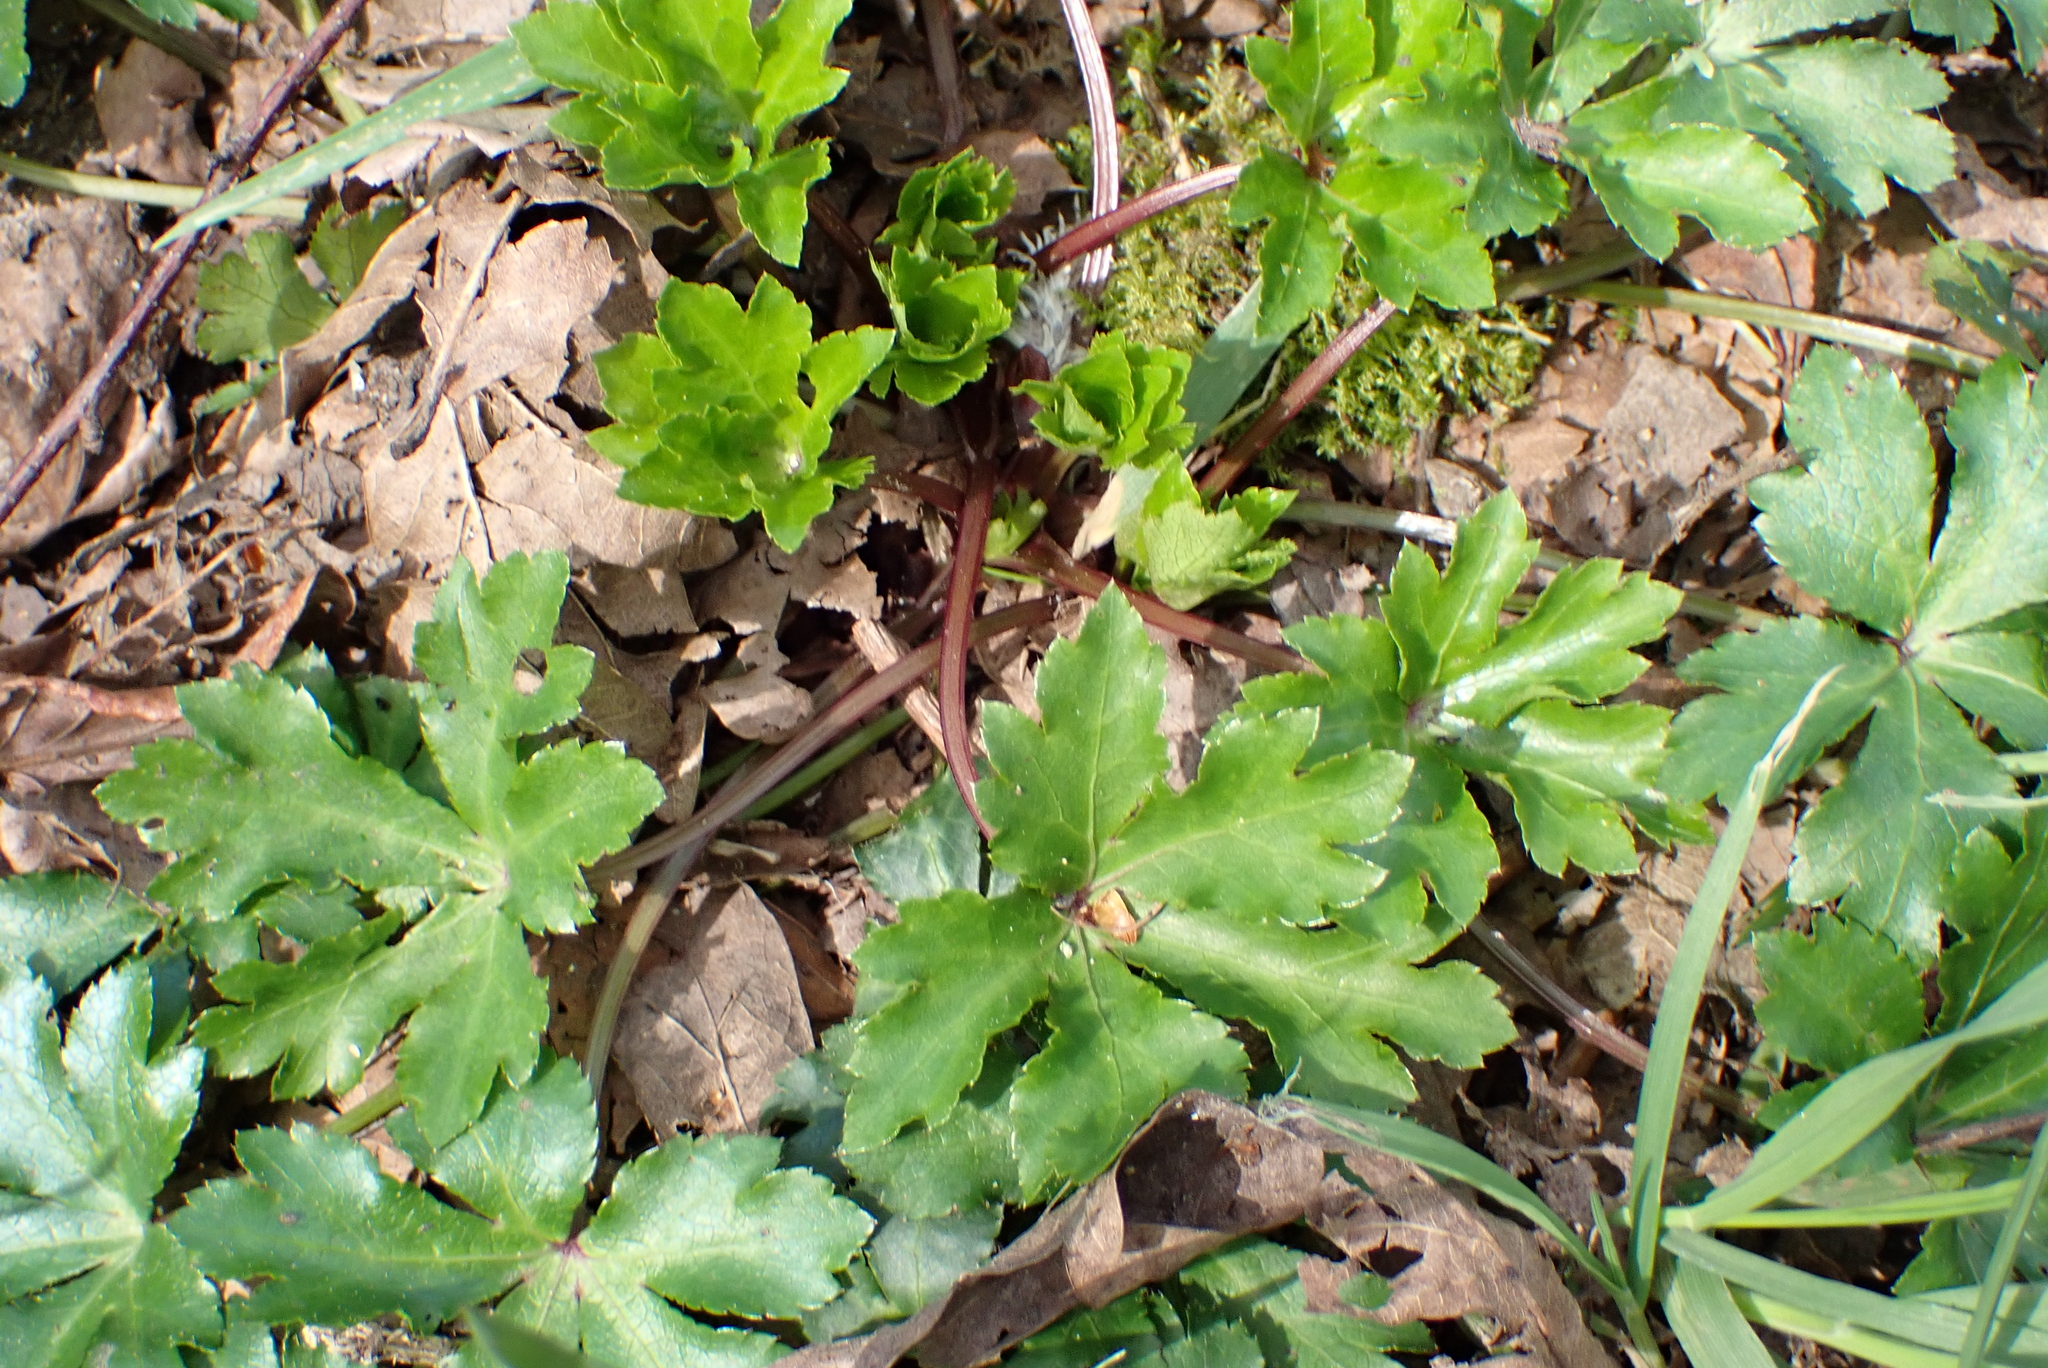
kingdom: Plantae
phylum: Tracheophyta
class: Magnoliopsida
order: Apiales
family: Apiaceae
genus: Sanicula
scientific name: Sanicula europaea
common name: Sanicle
